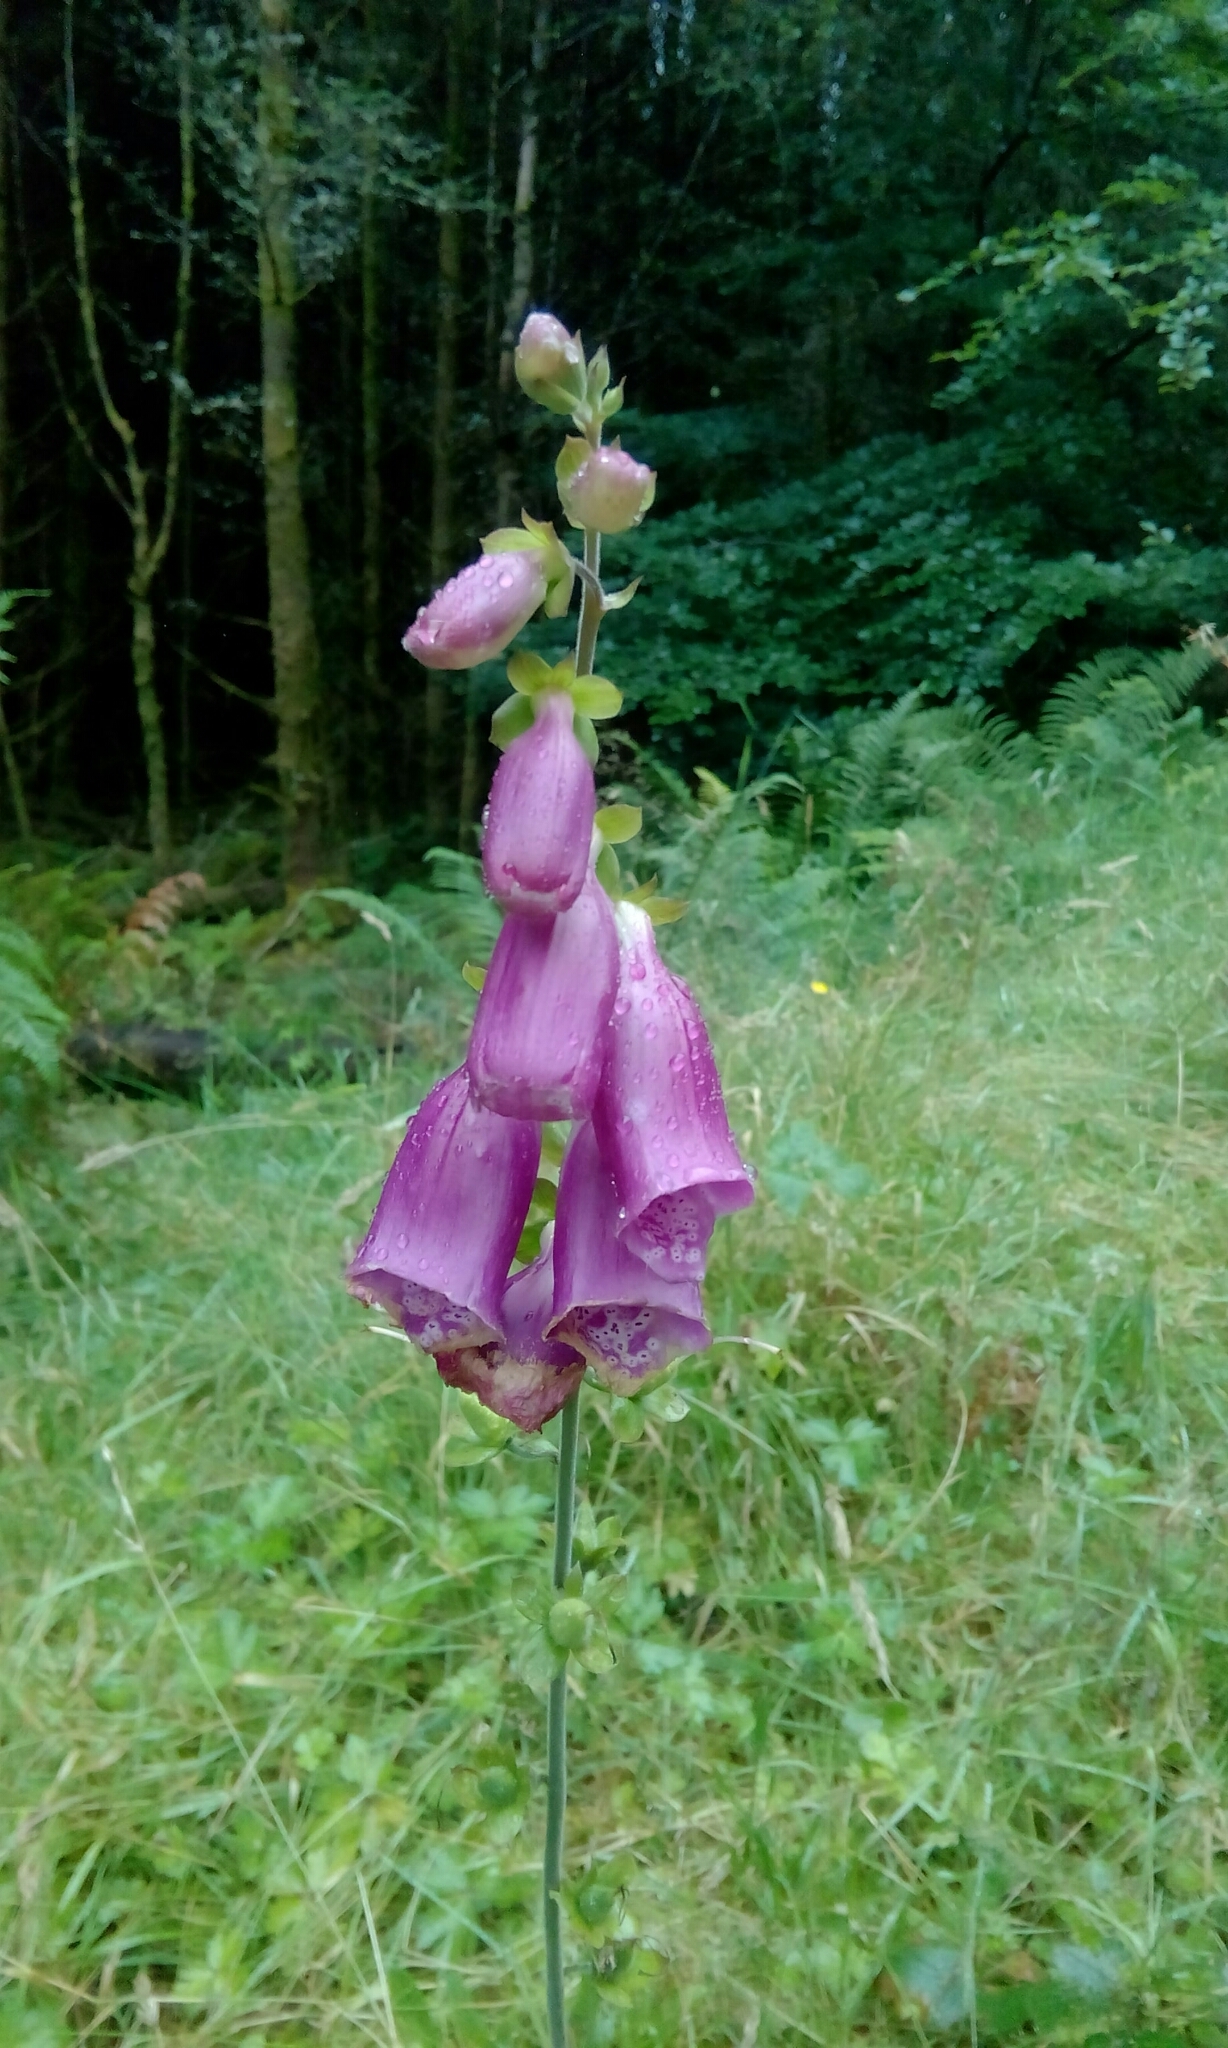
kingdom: Plantae
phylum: Tracheophyta
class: Magnoliopsida
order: Lamiales
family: Plantaginaceae
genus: Digitalis
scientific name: Digitalis purpurea
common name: Foxglove
